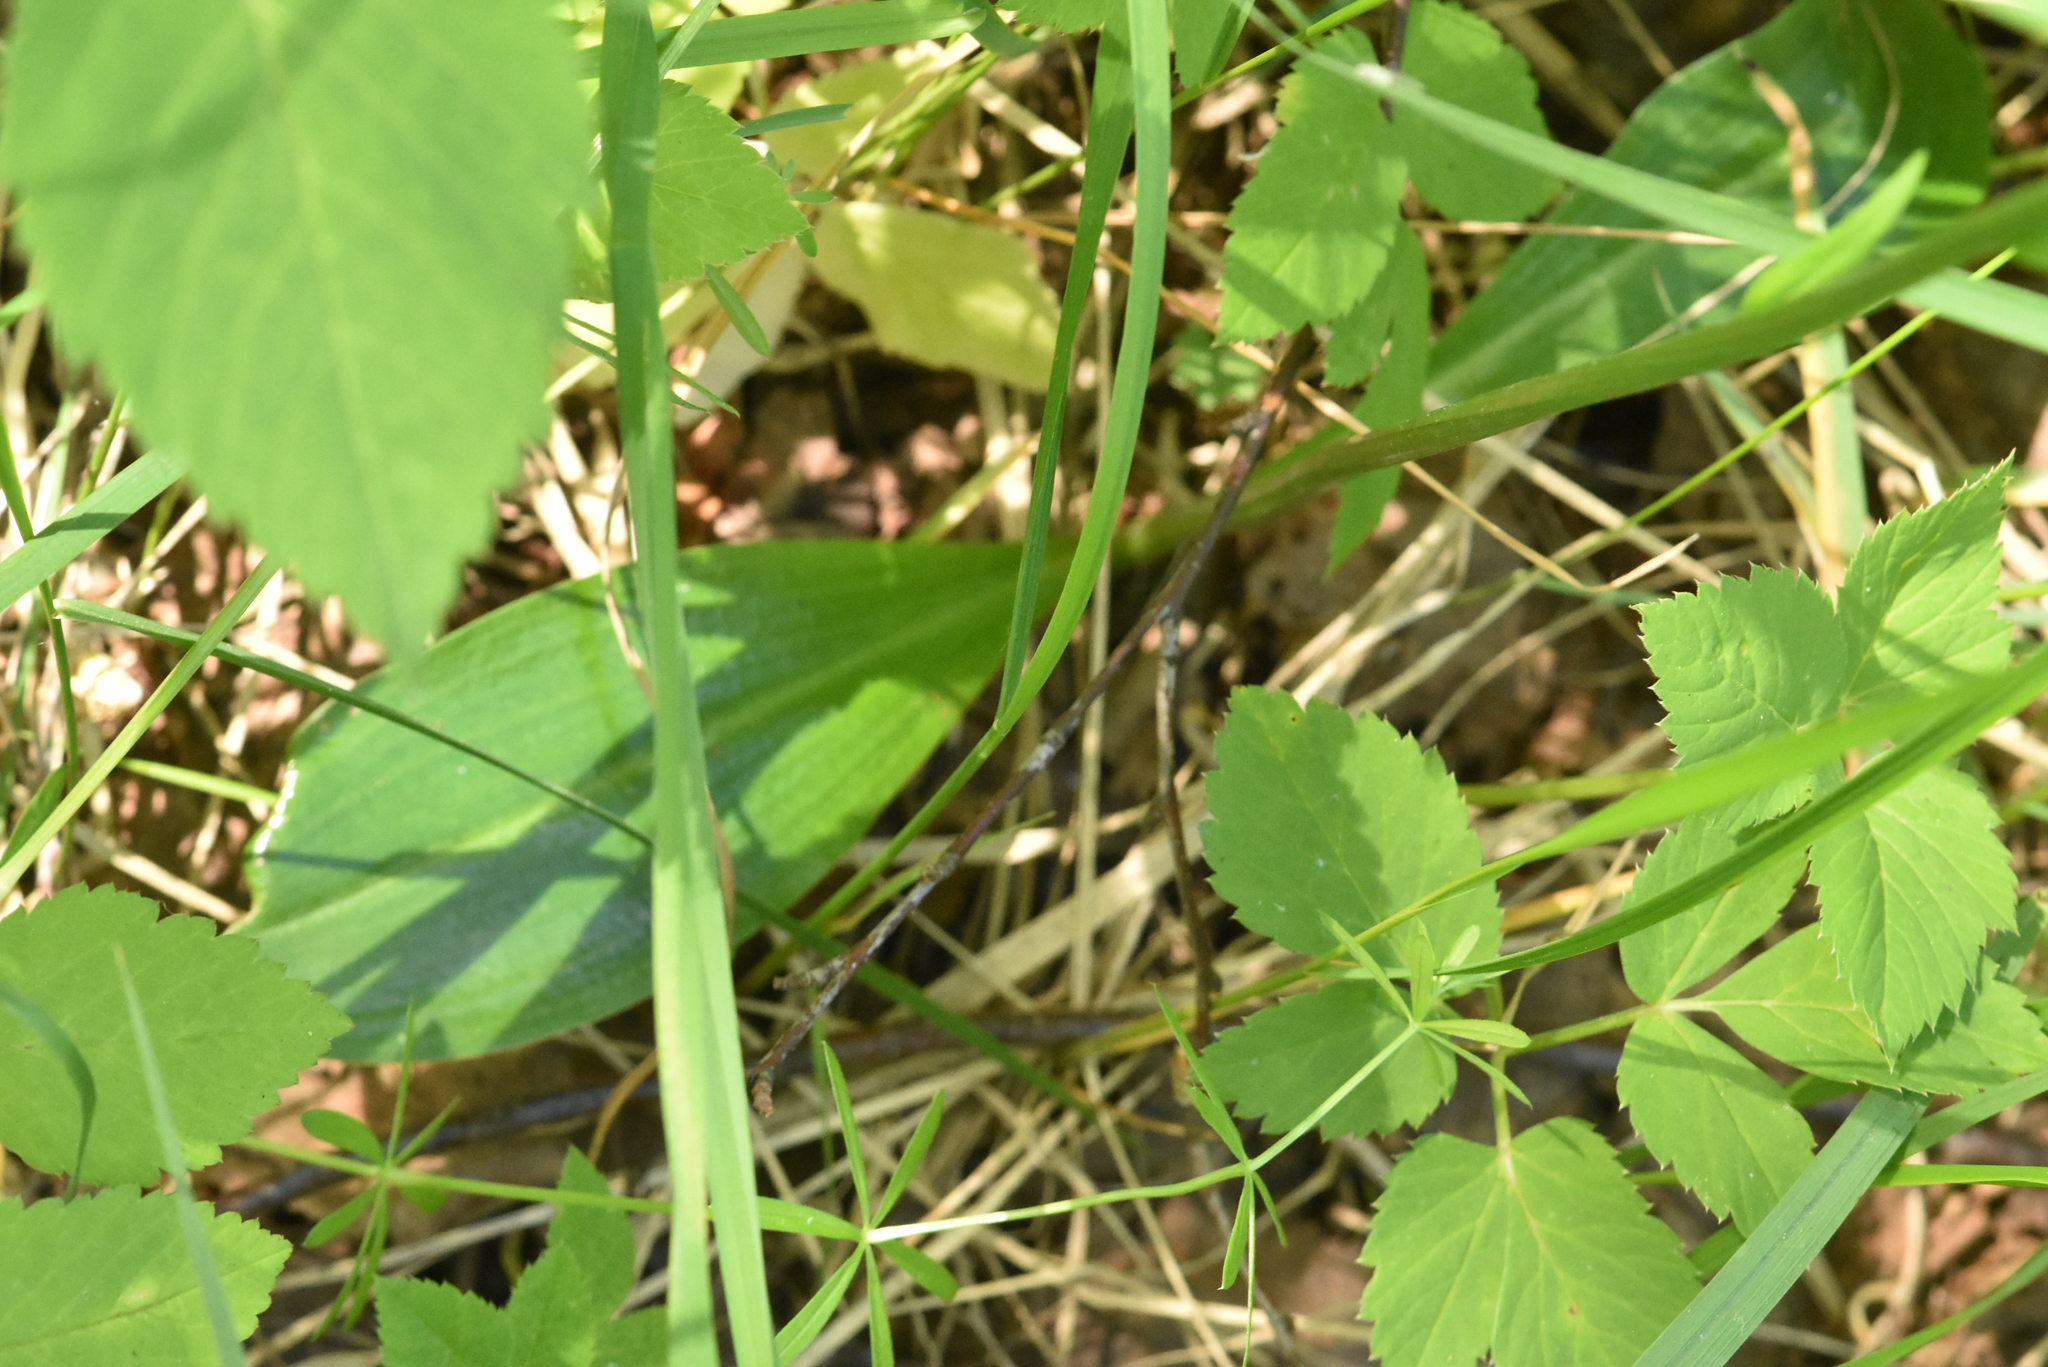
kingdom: Plantae
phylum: Tracheophyta
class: Liliopsida
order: Asparagales
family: Orchidaceae
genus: Platanthera
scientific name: Platanthera bifolia
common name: Lesser butterfly-orchid
